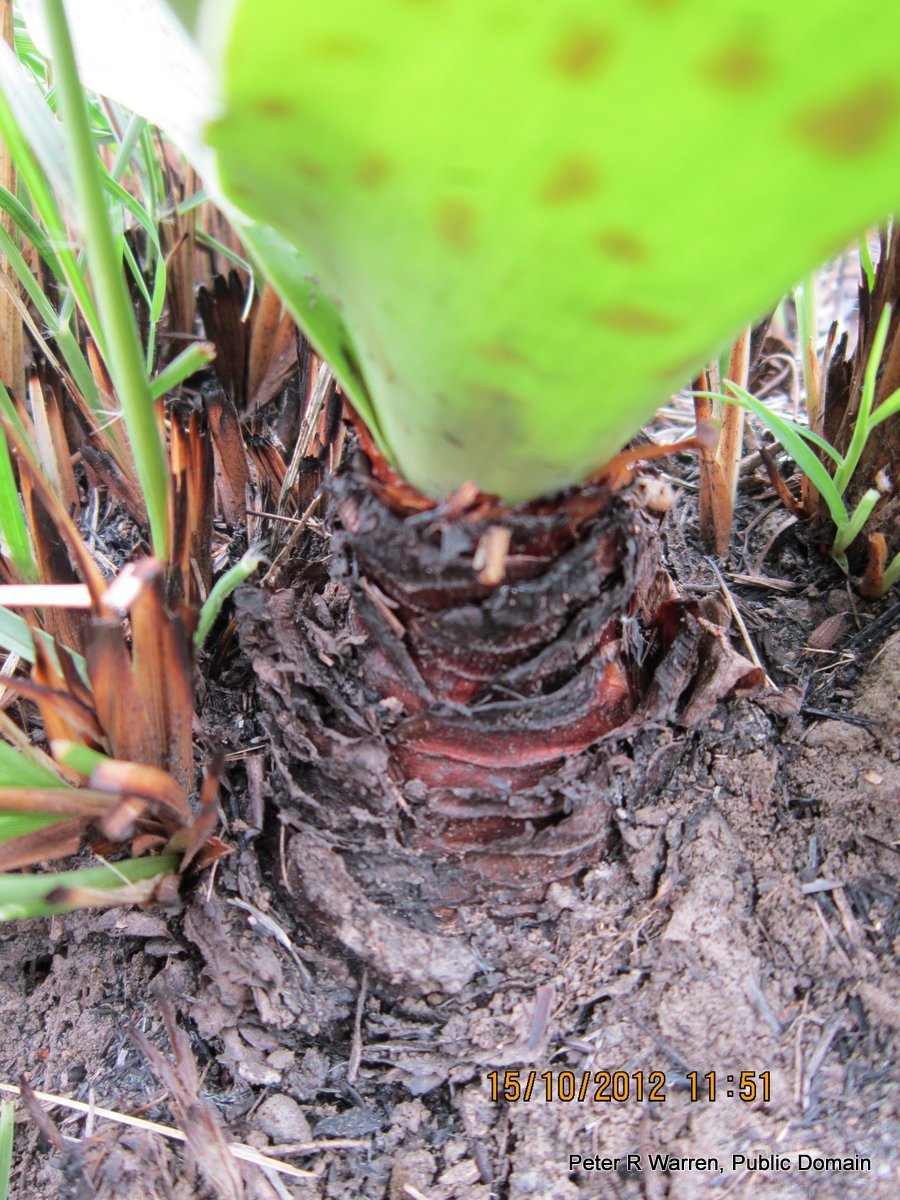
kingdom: Plantae
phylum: Tracheophyta
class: Liliopsida
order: Asparagales
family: Asparagaceae
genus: Ledebouria
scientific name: Ledebouria revoluta
